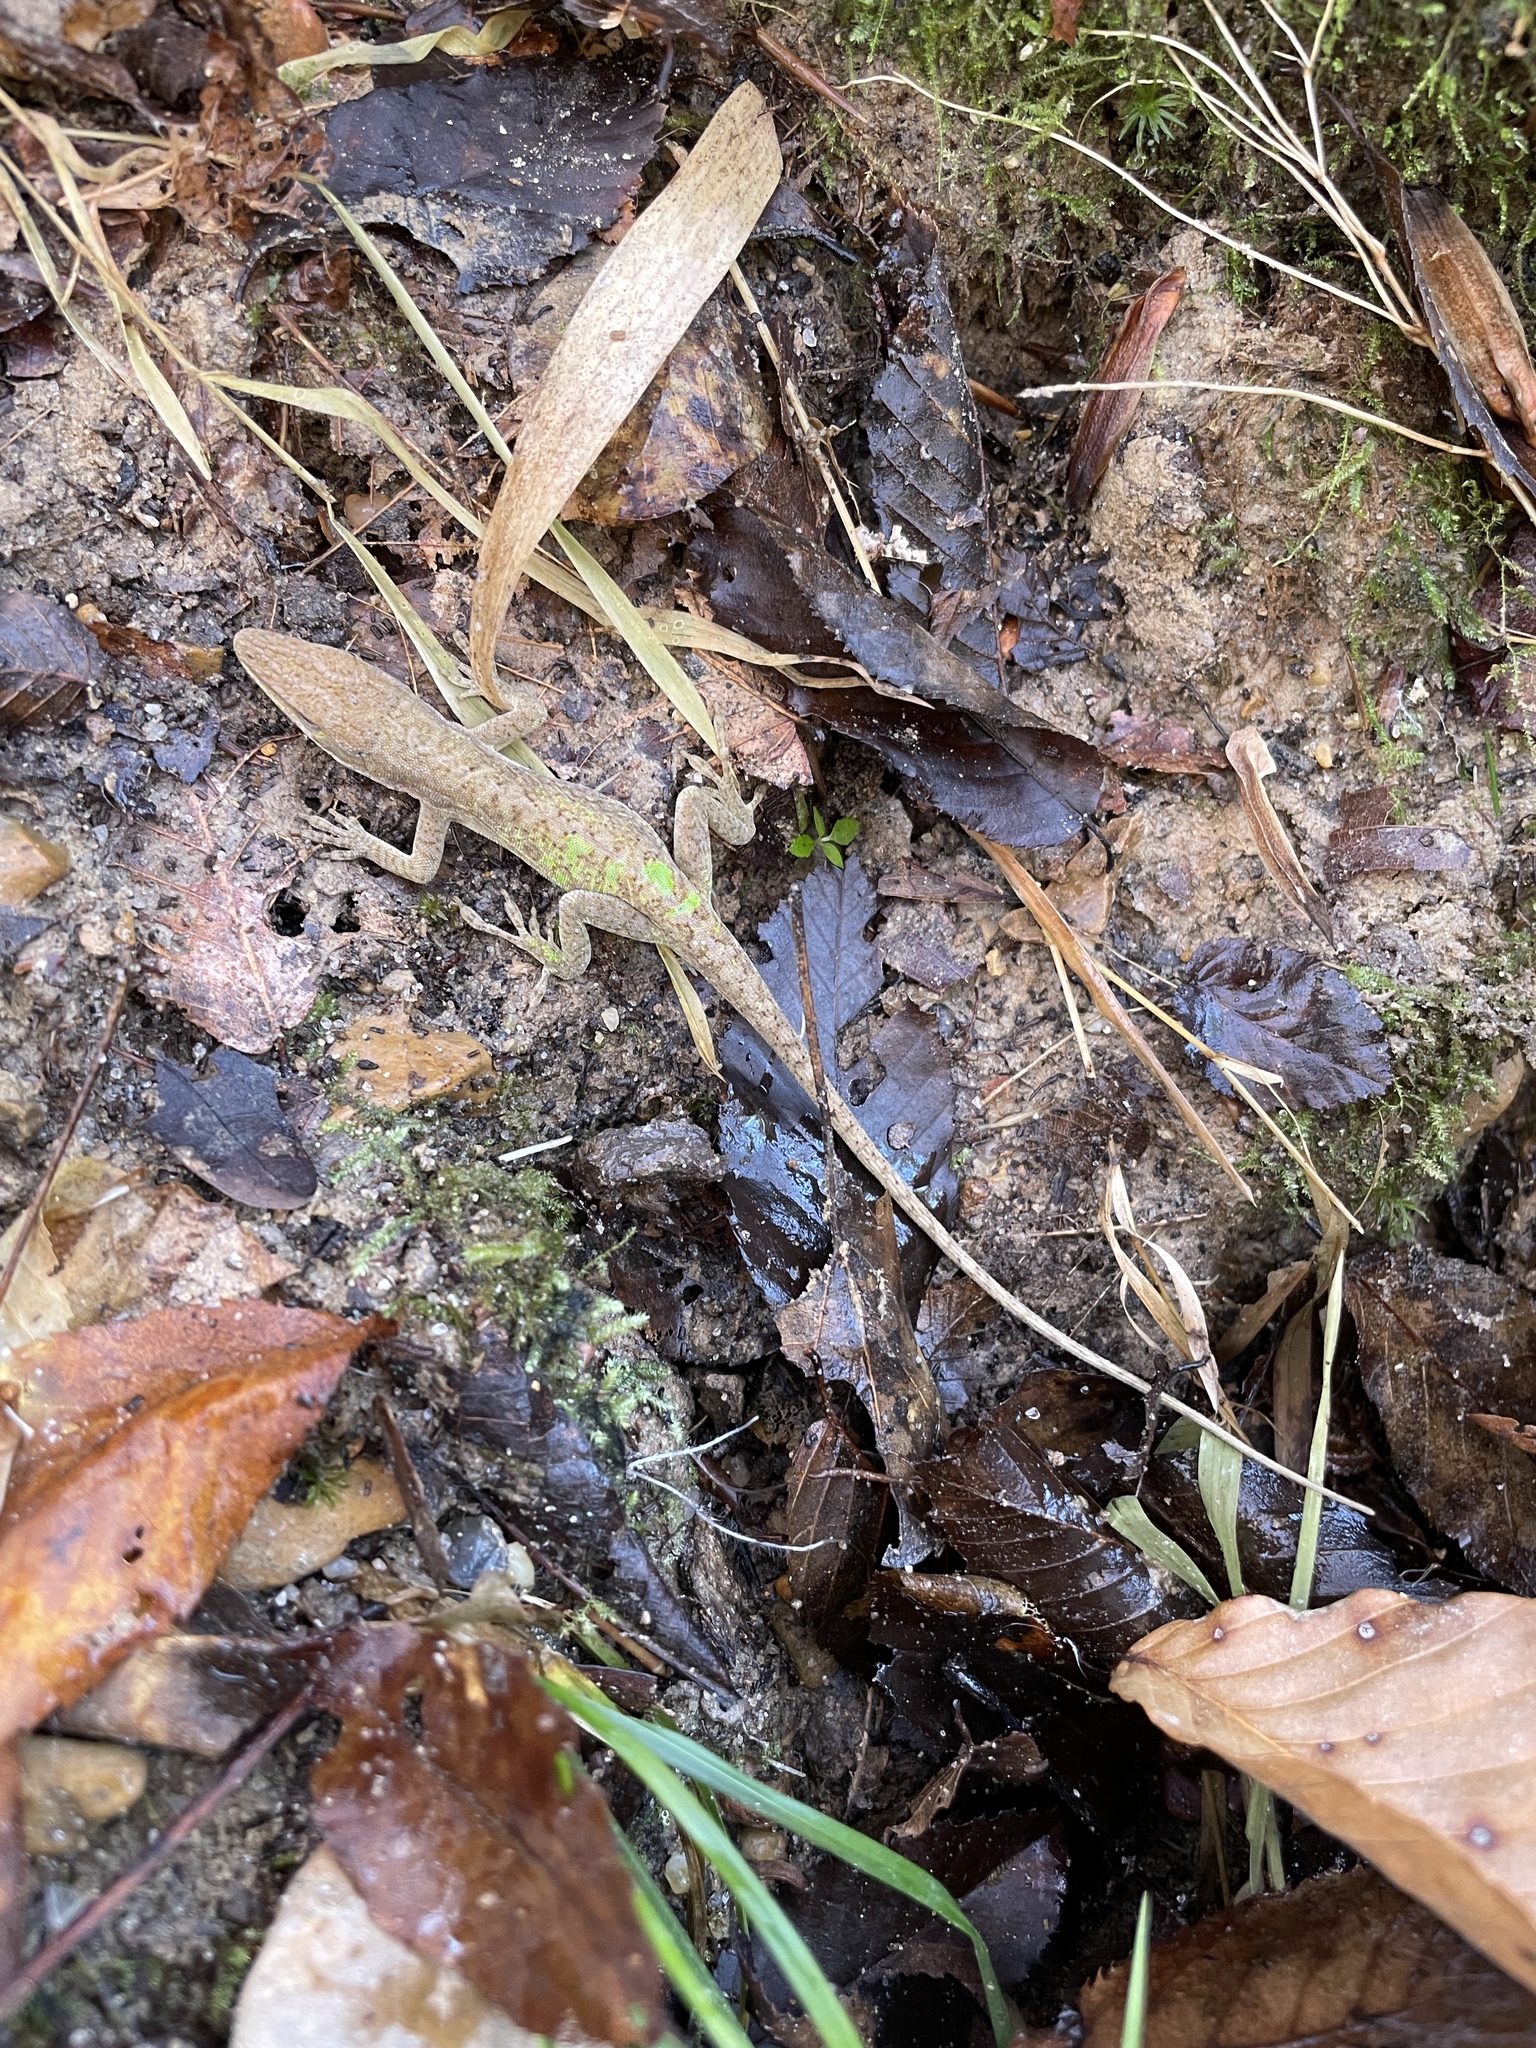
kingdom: Animalia
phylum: Chordata
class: Squamata
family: Dactyloidae
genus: Anolis
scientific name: Anolis carolinensis
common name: Green anole
